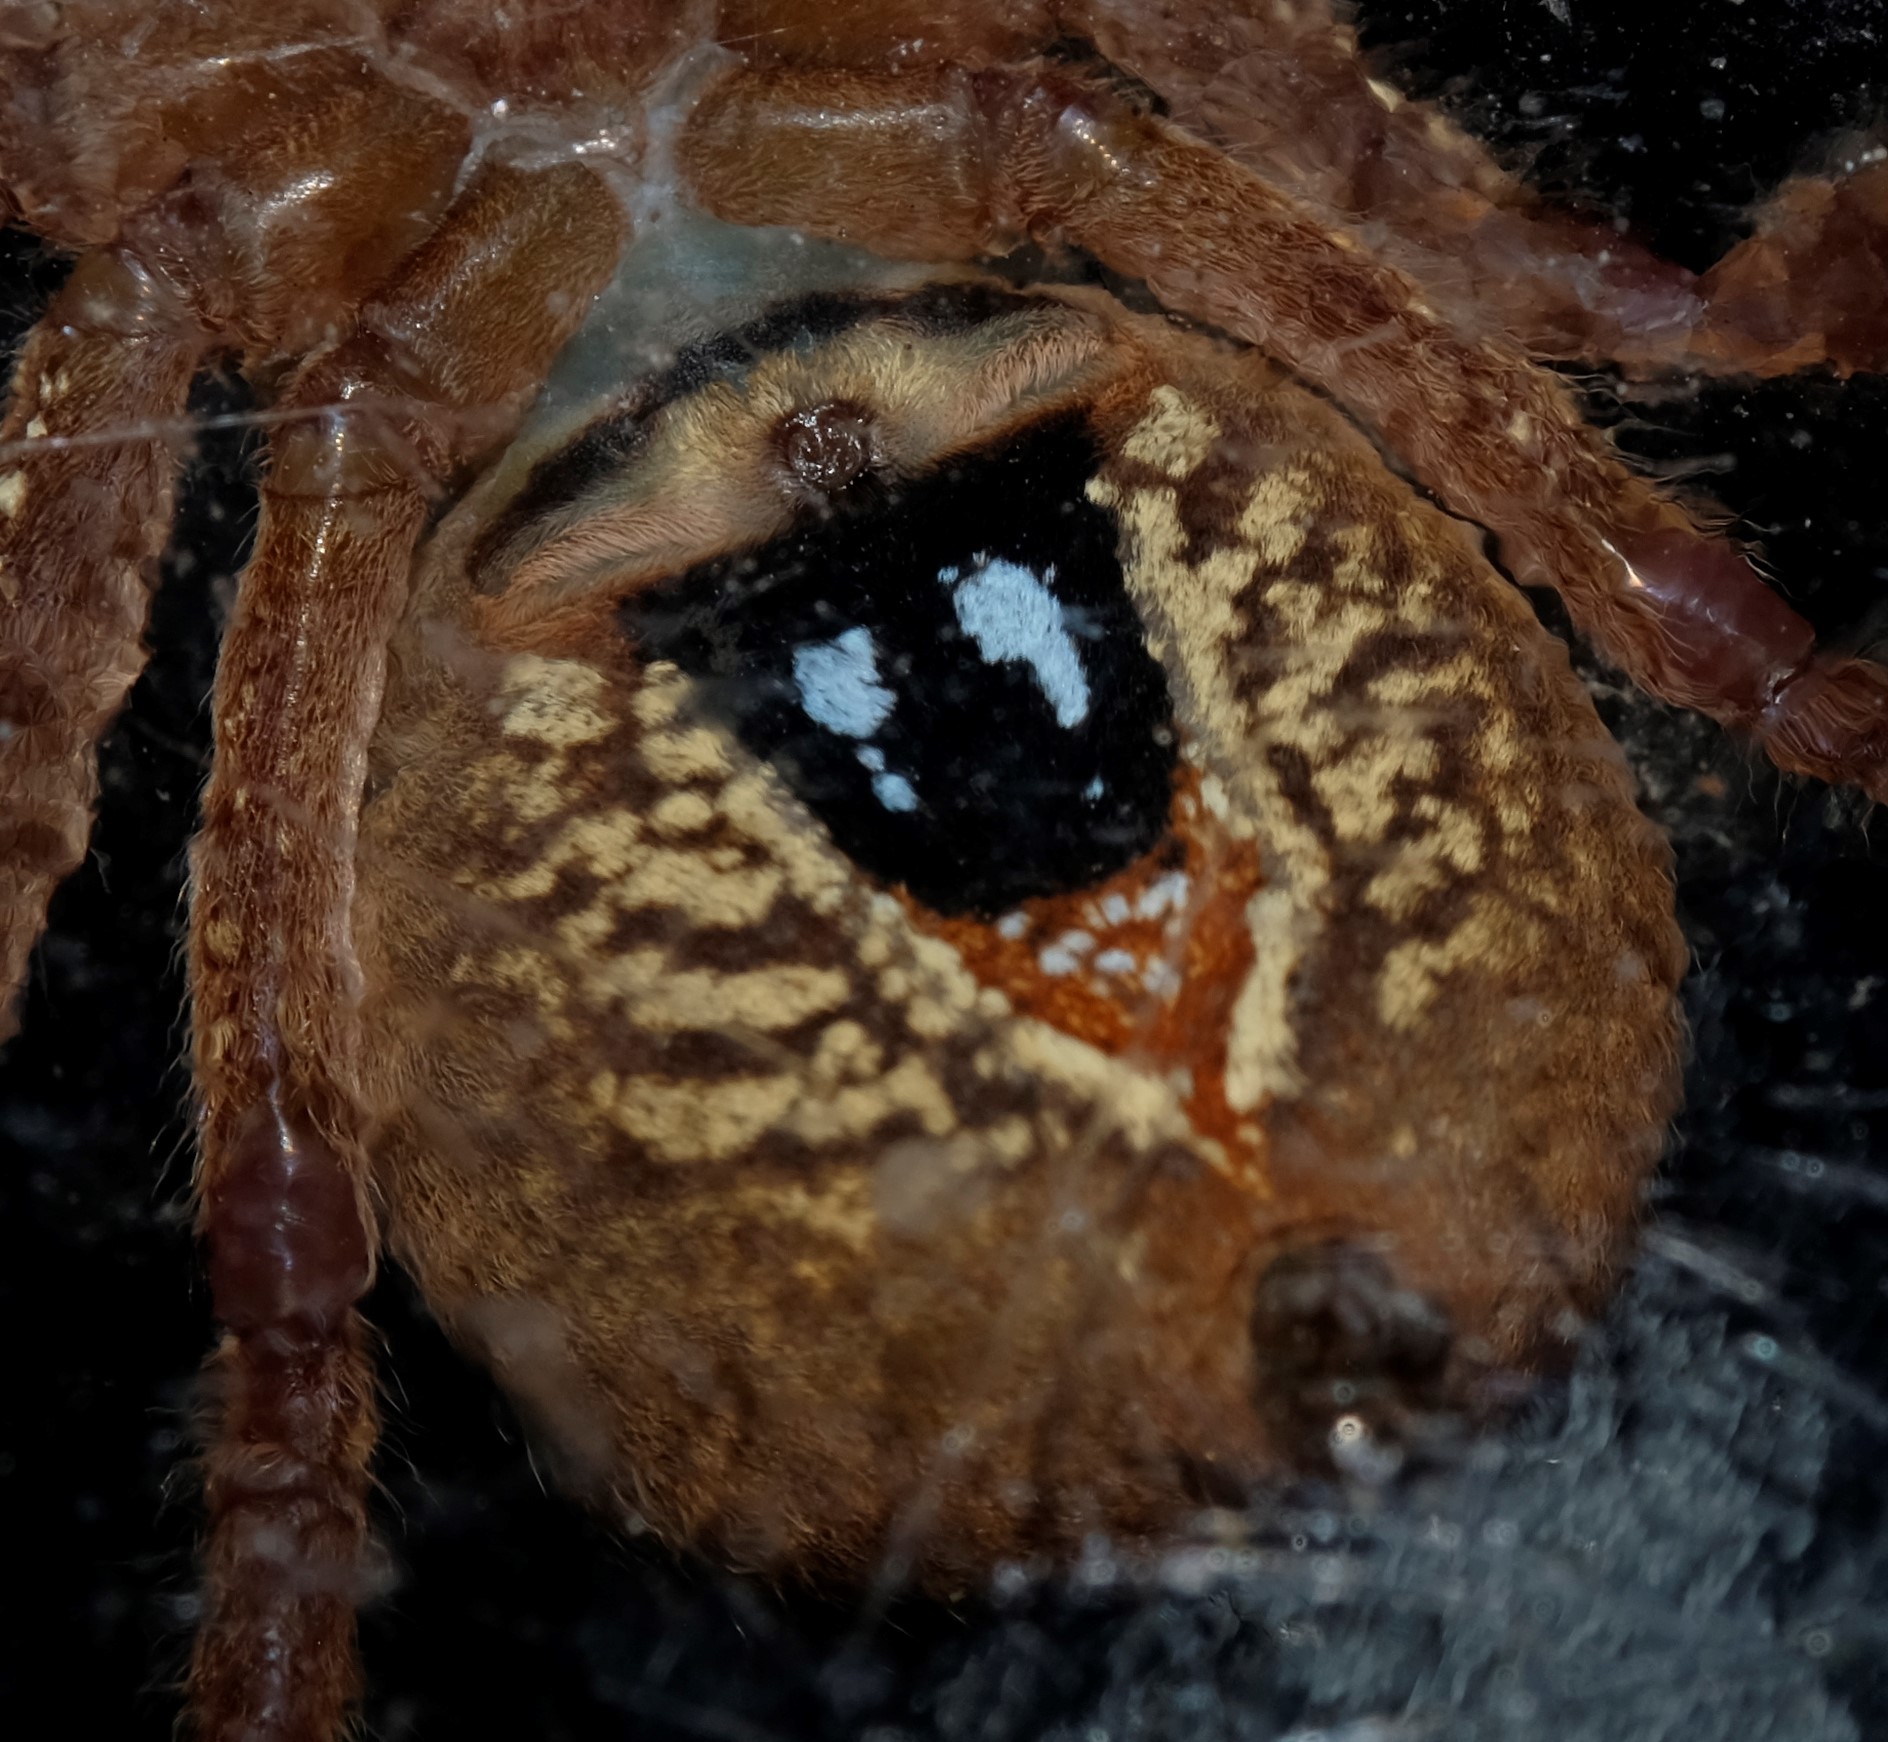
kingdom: Animalia
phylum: Arthropoda
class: Arachnida
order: Araneae
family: Sparassidae
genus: Neosparassus
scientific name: Neosparassus diana
